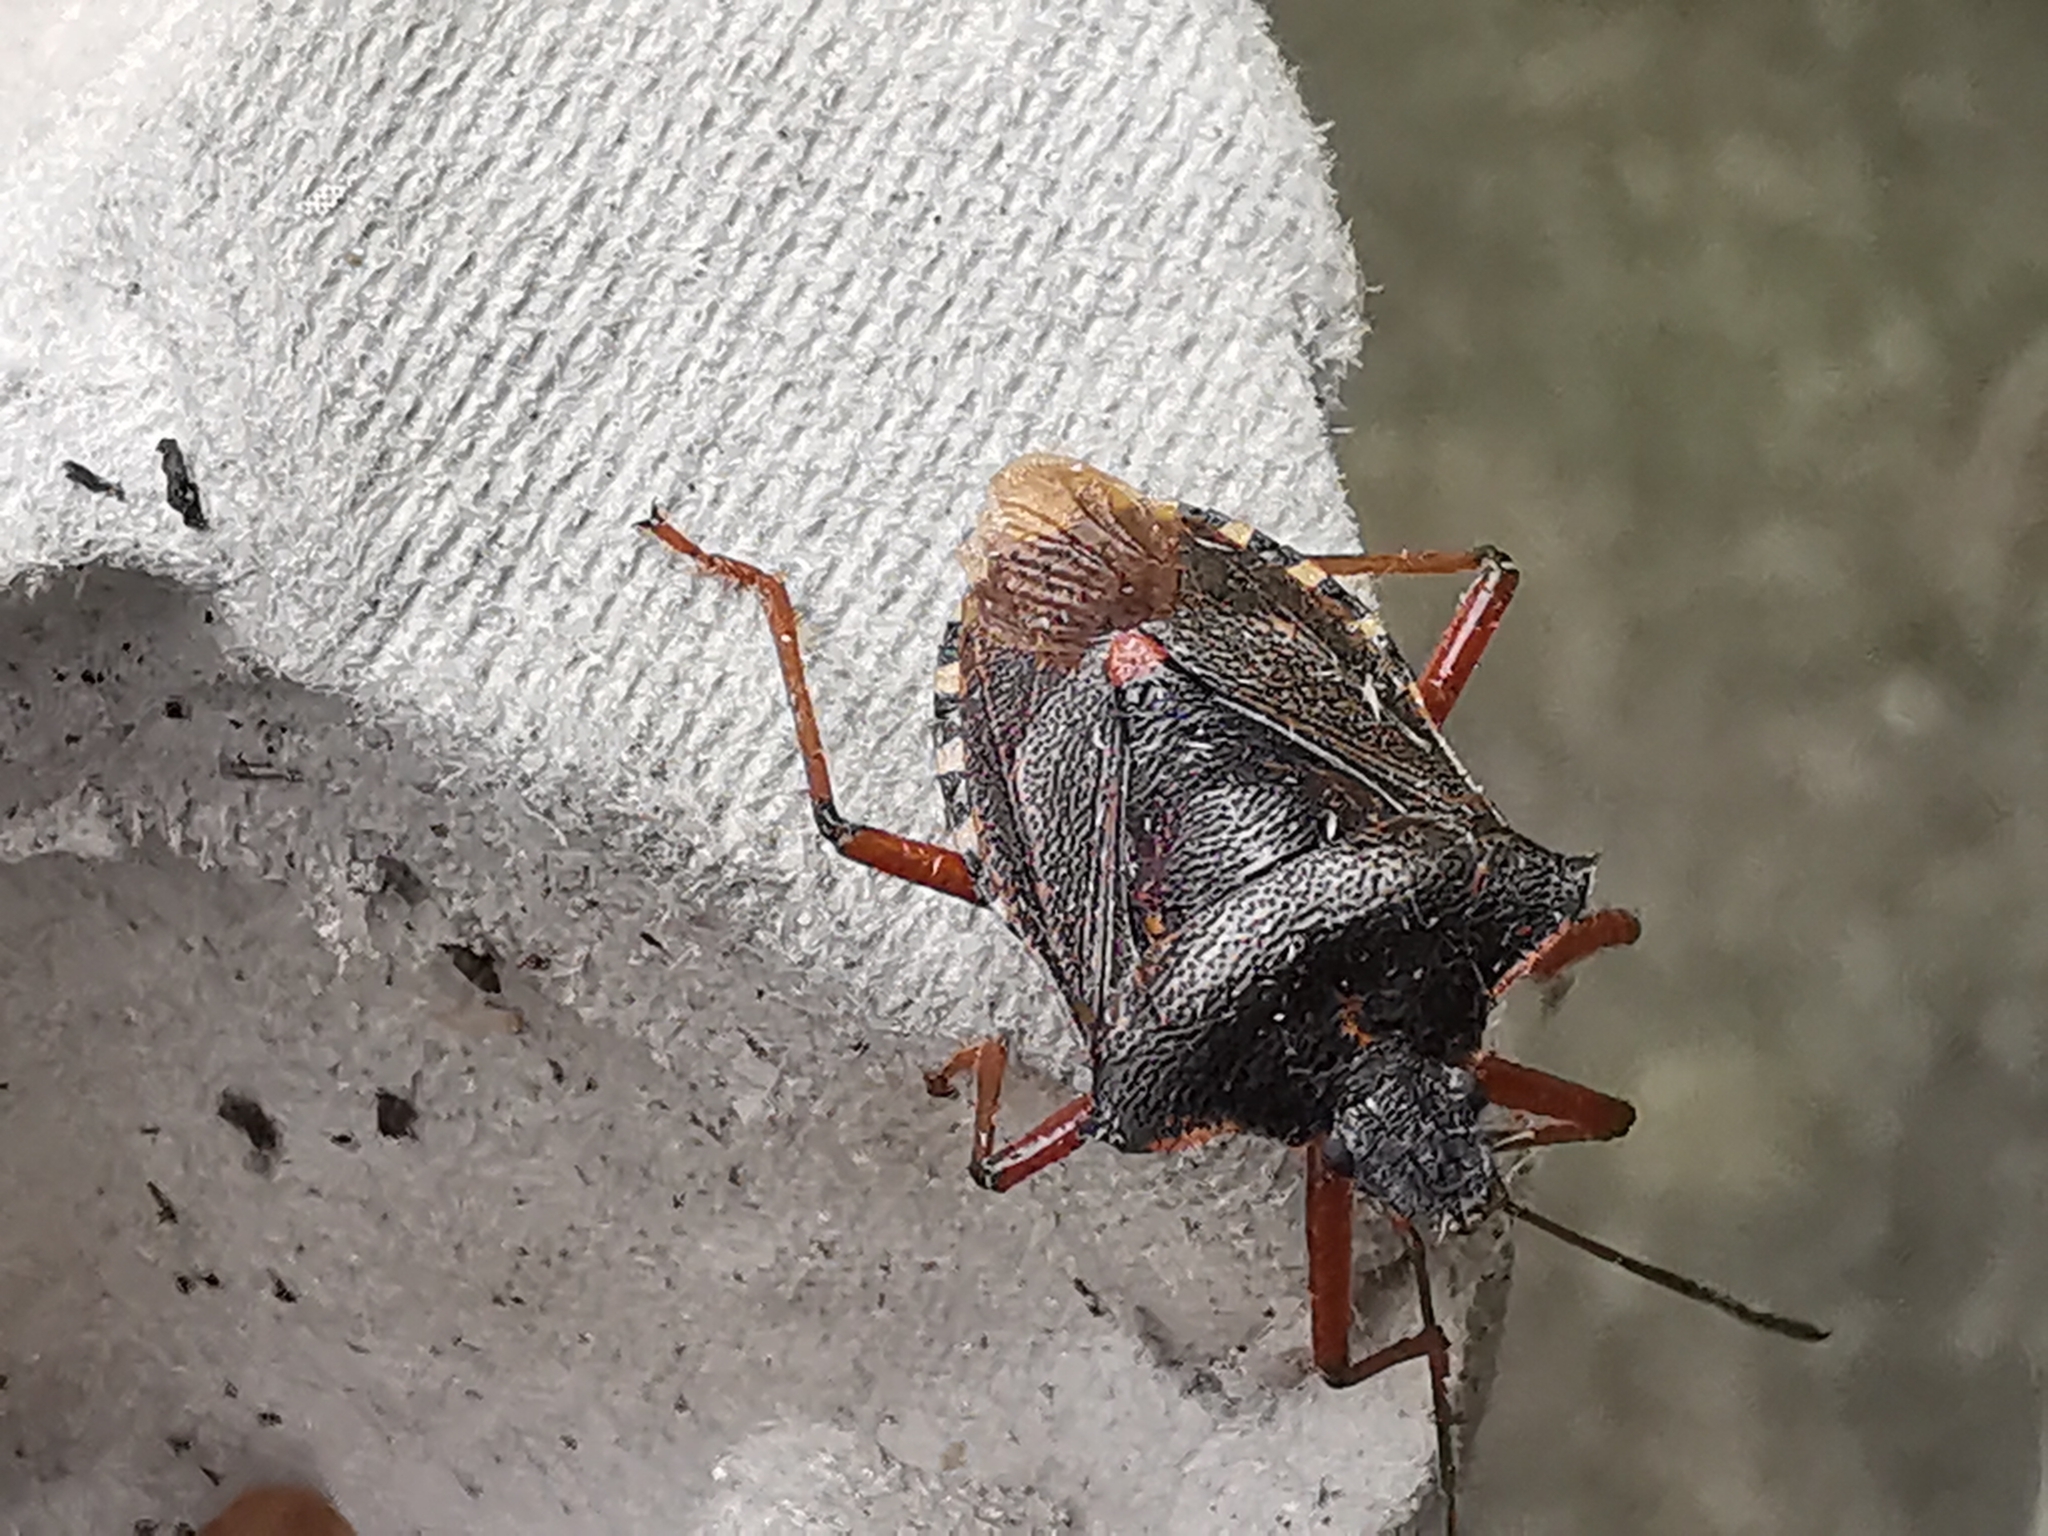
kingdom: Animalia
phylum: Arthropoda
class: Insecta
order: Hemiptera
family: Pentatomidae
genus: Pentatoma
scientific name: Pentatoma rufipes
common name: Forest bug
